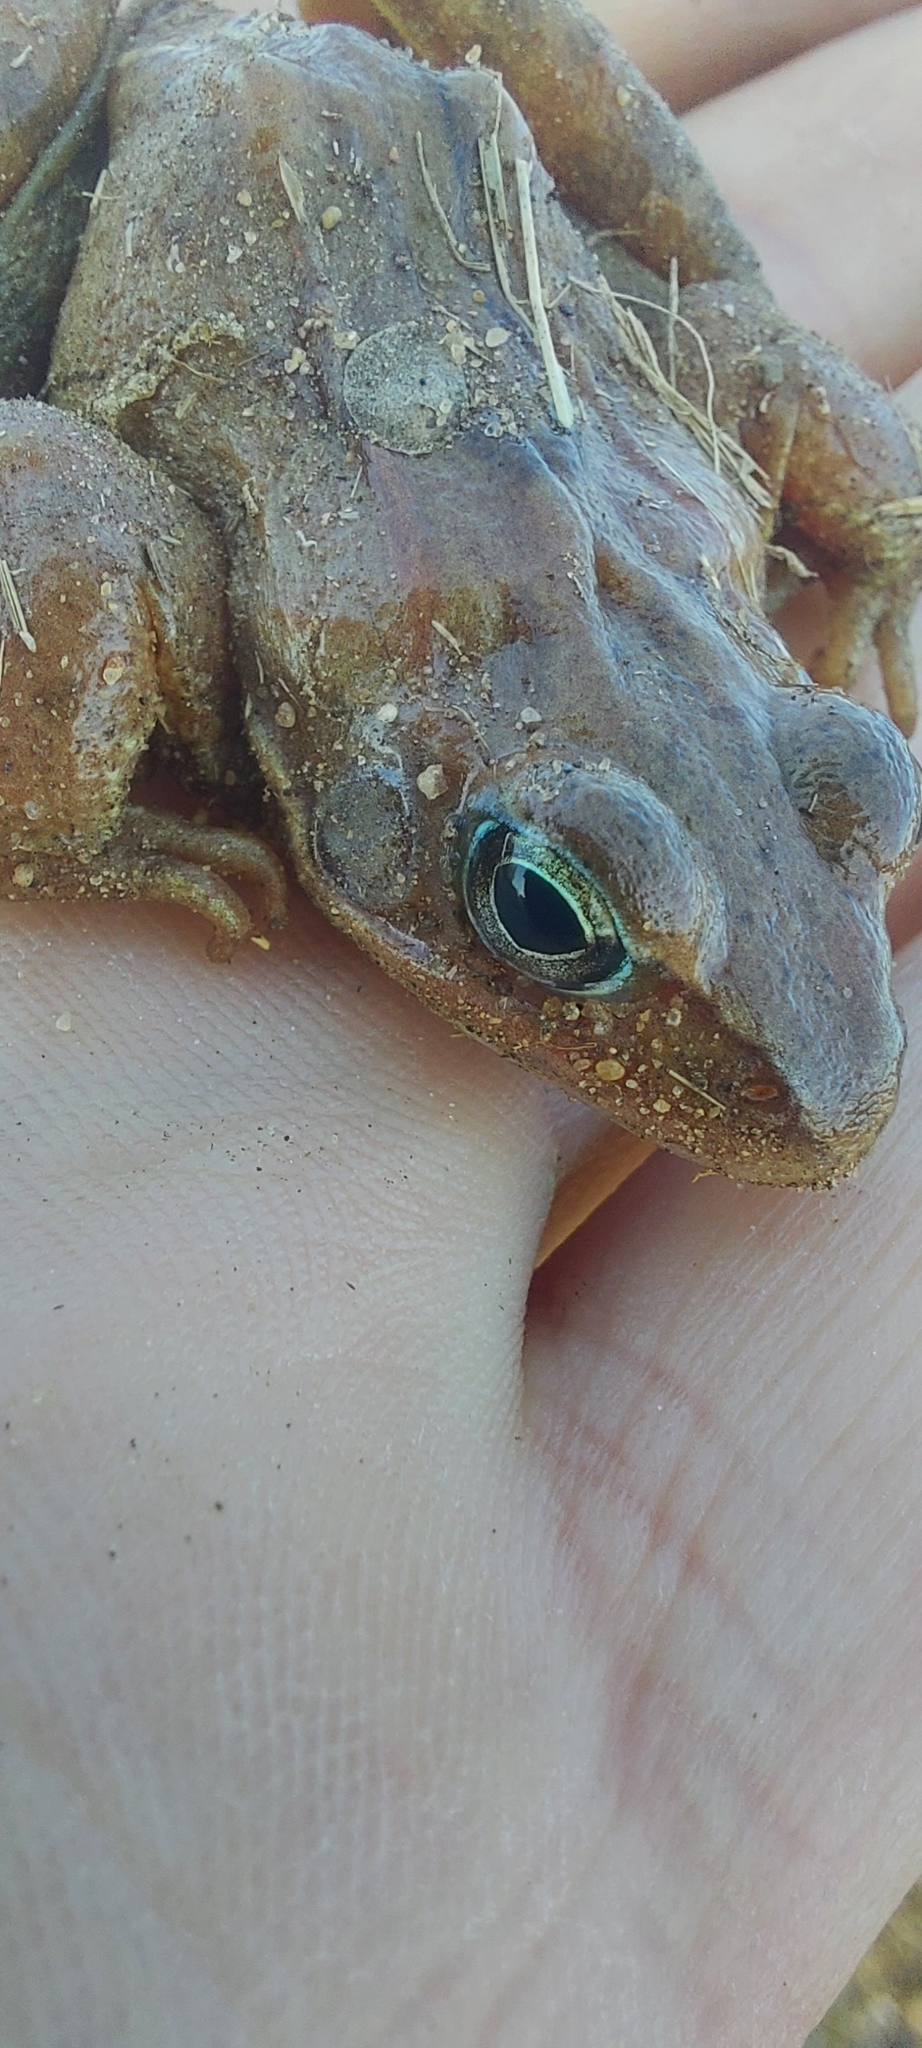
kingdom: Animalia
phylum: Chordata
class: Amphibia
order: Anura
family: Ranidae
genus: Rana
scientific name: Rana arvalis
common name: Moor frog
